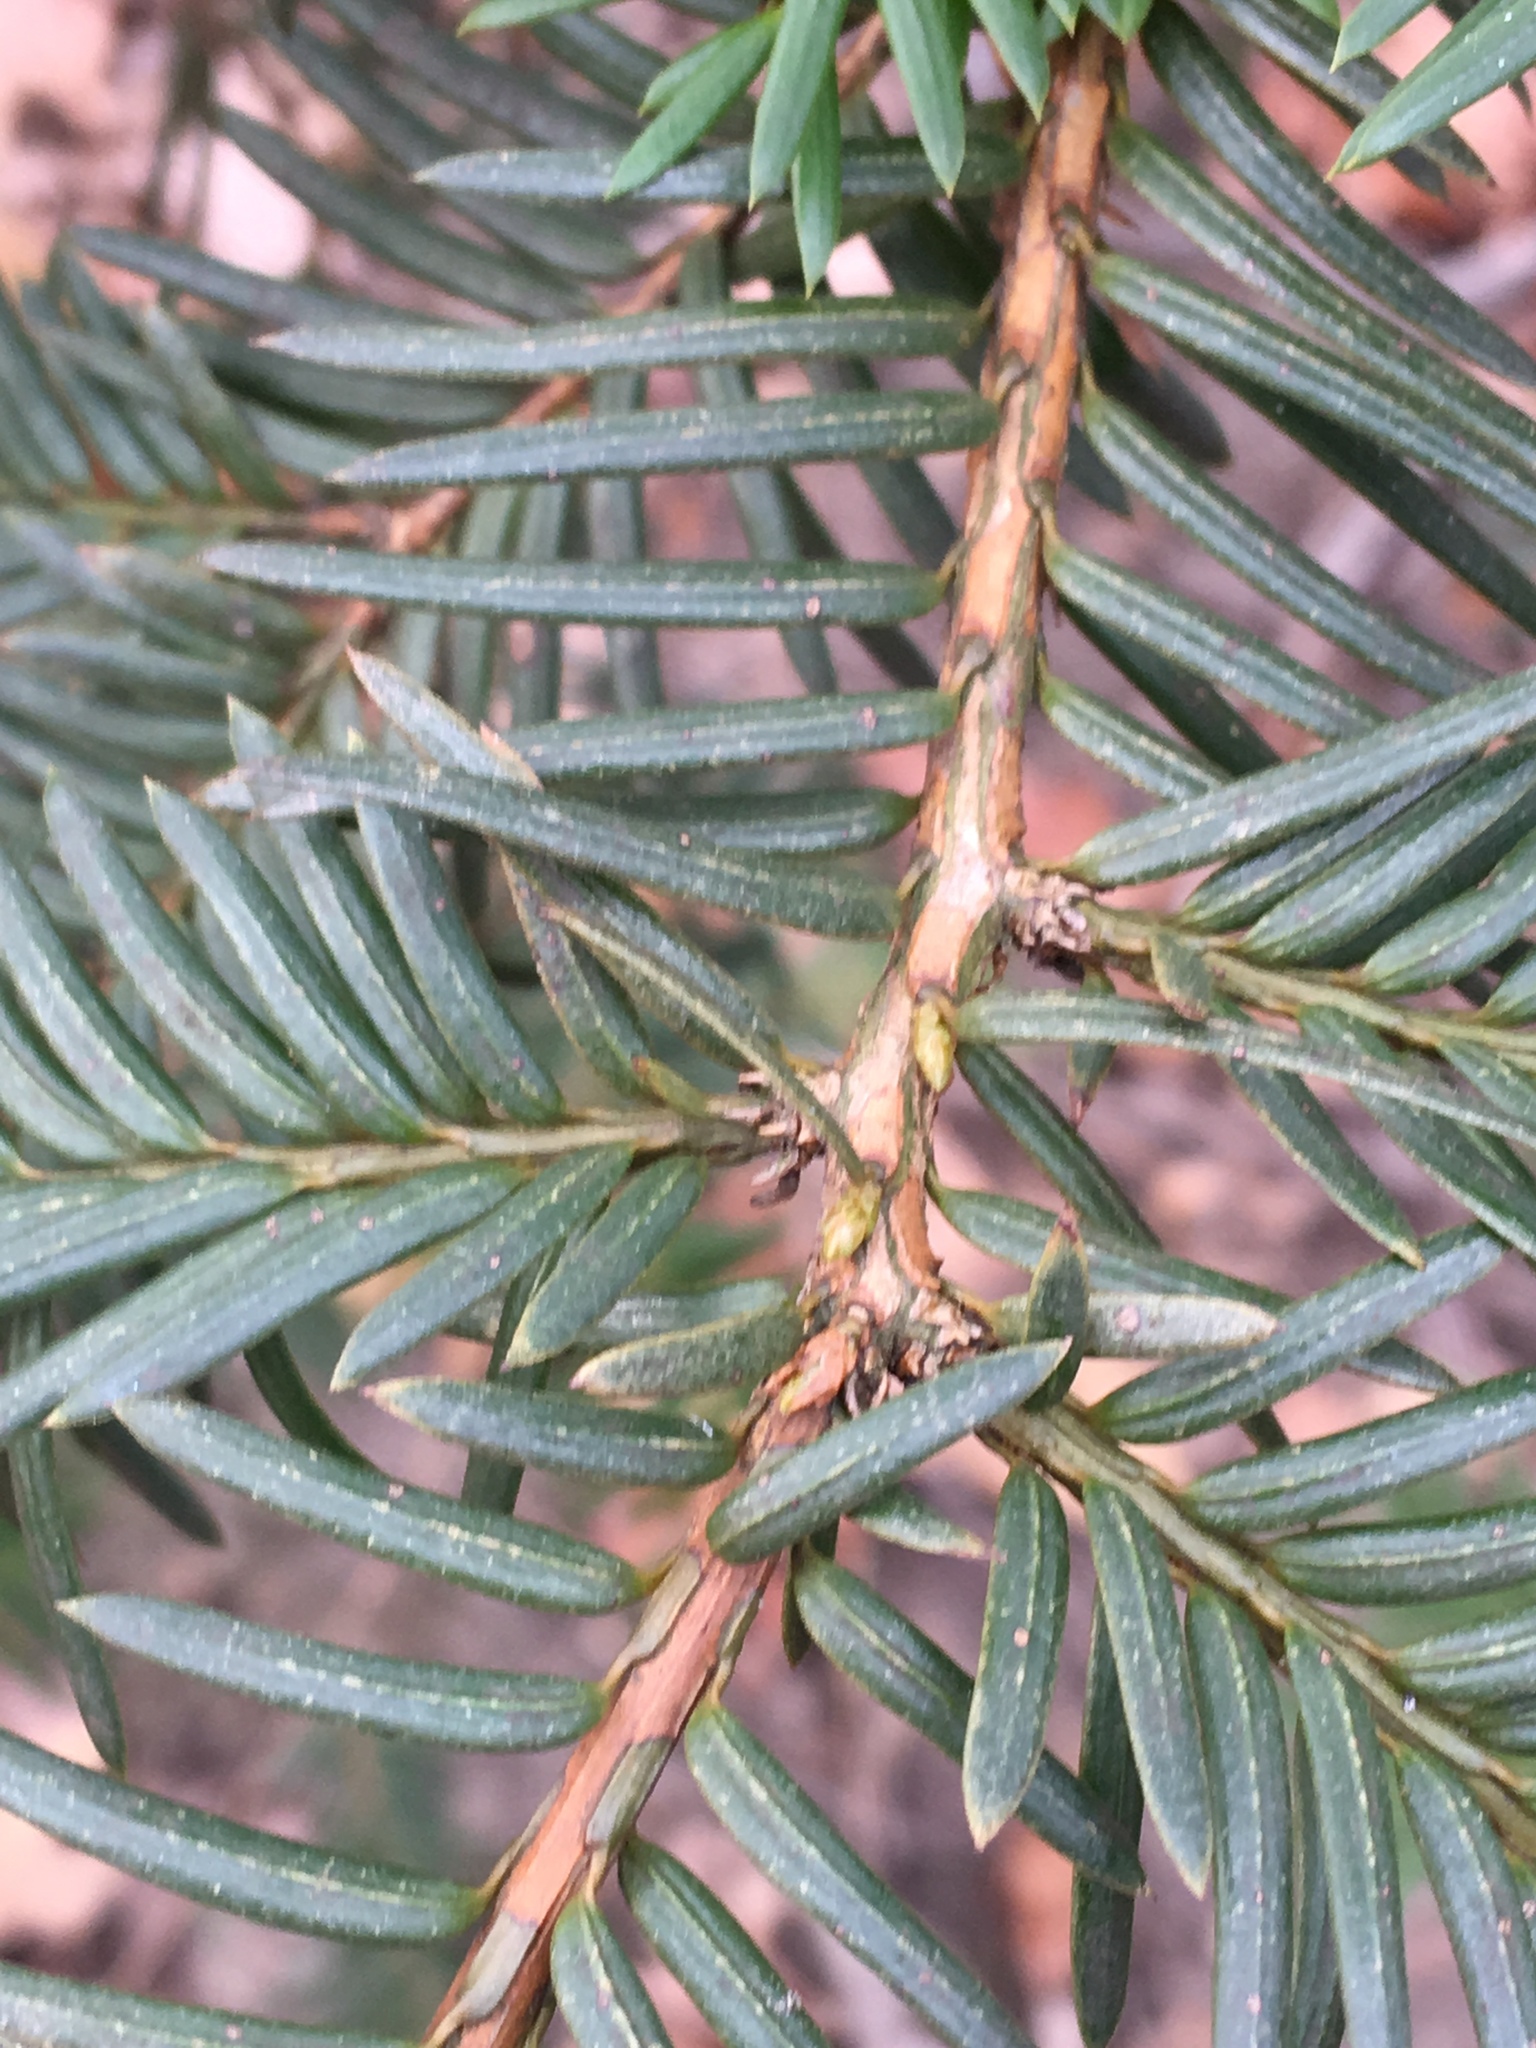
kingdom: Plantae
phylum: Tracheophyta
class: Pinopsida
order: Pinales
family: Taxaceae
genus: Taxus
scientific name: Taxus cuspidata
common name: Japanese yew
